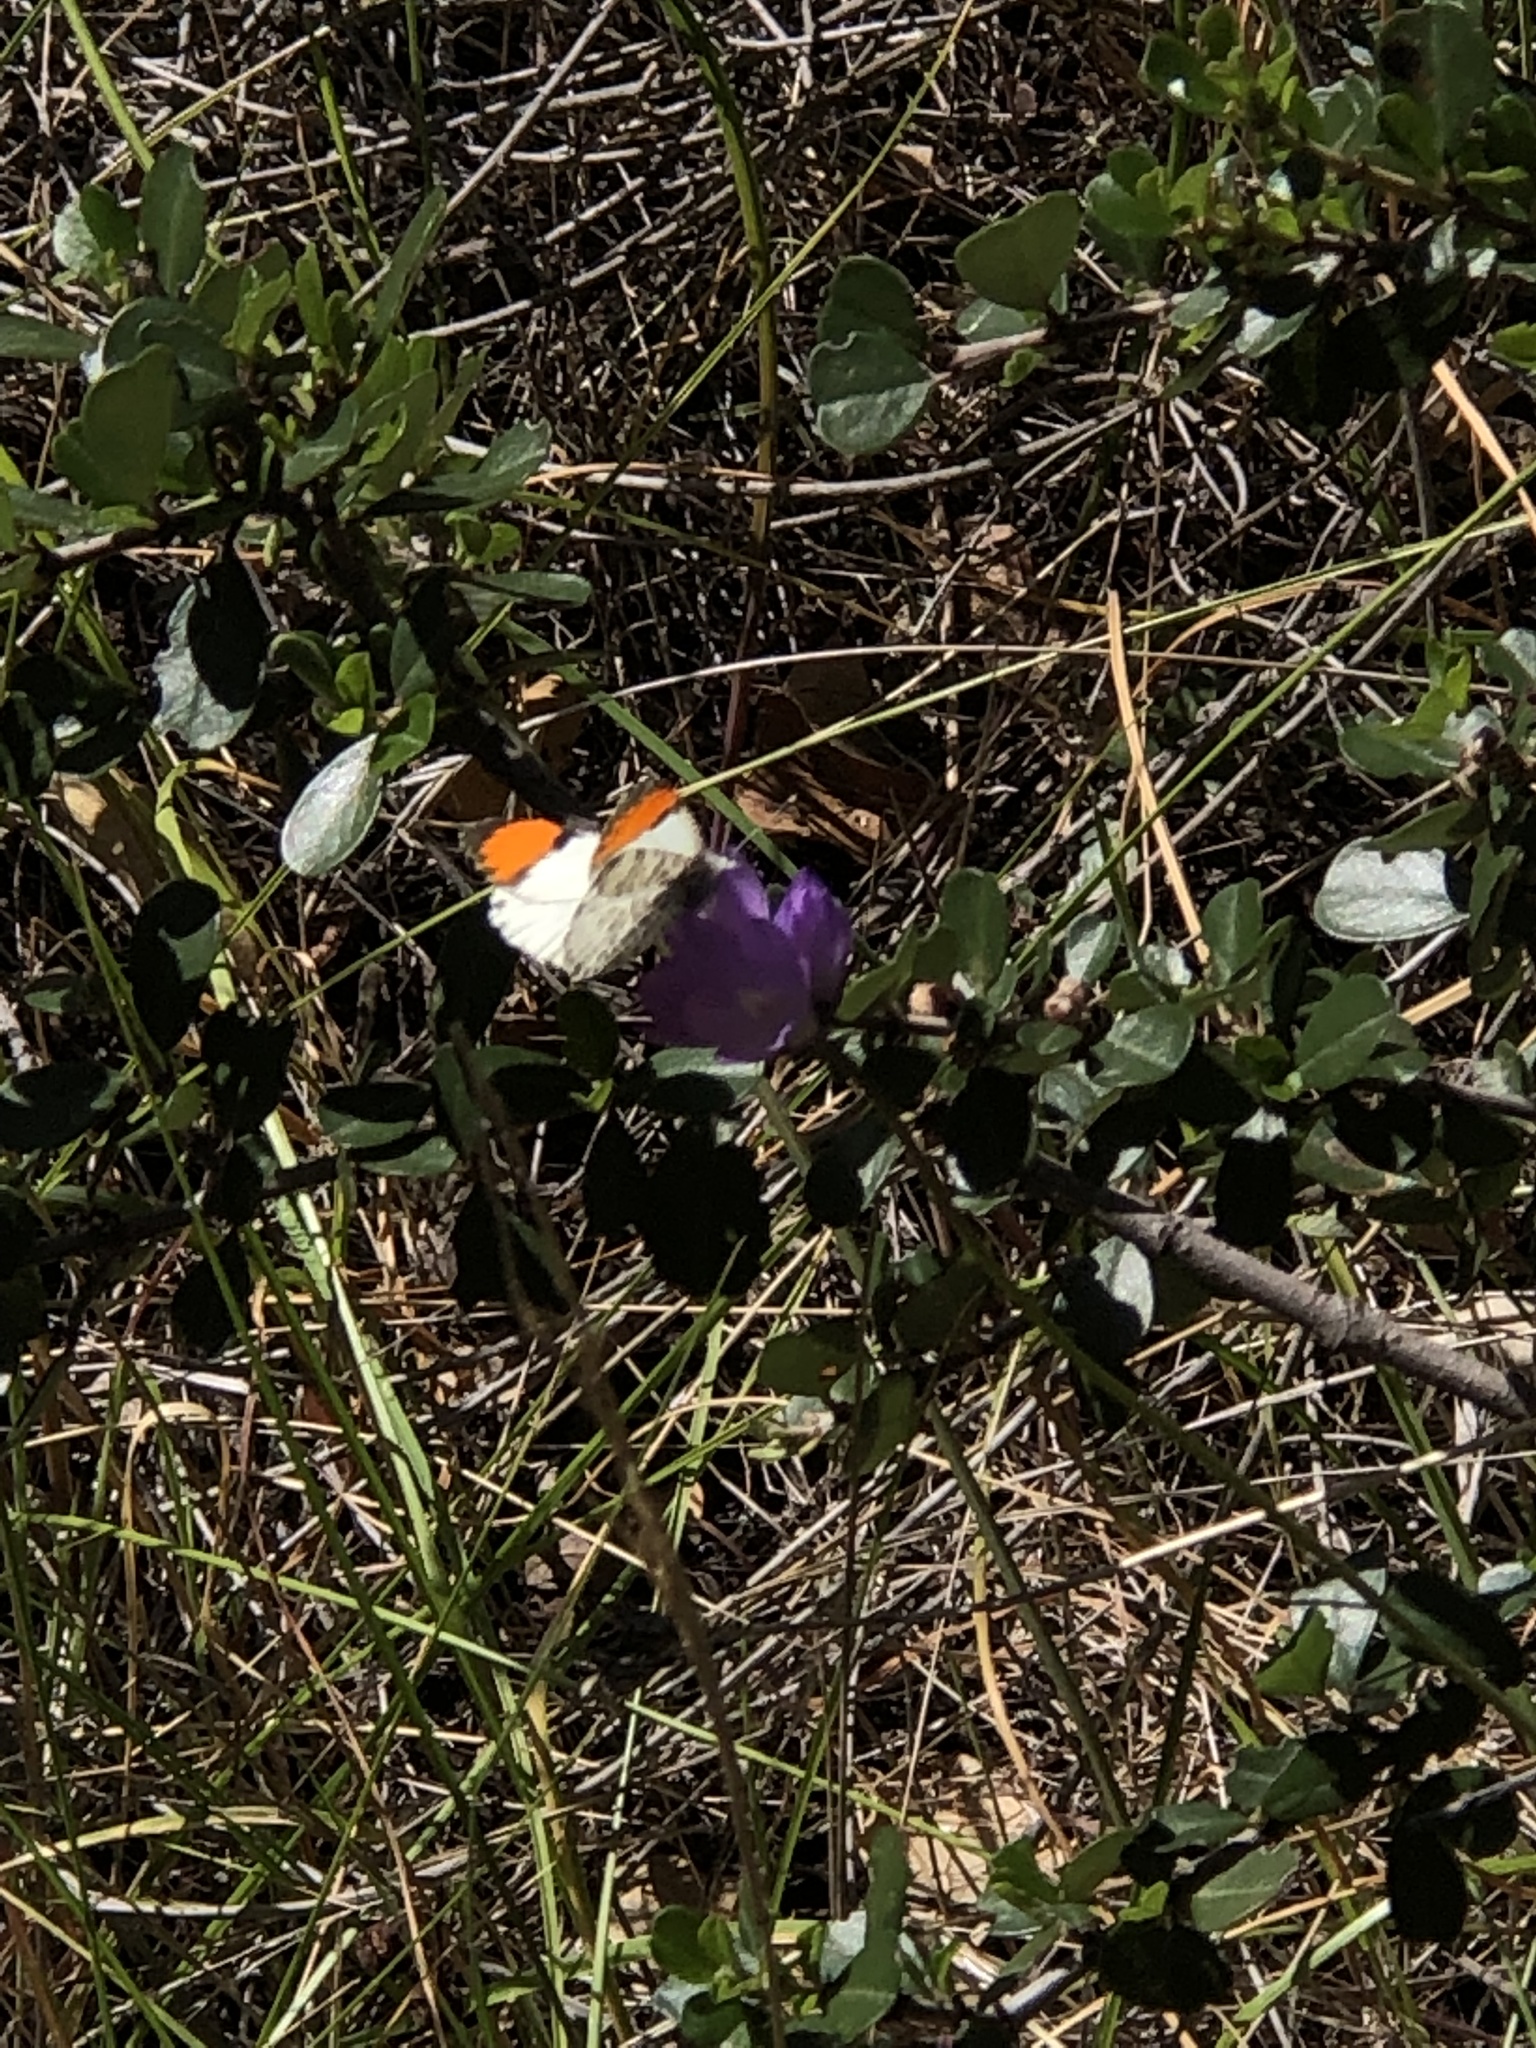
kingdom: Animalia
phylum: Arthropoda
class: Insecta
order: Lepidoptera
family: Pieridae
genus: Anthocharis
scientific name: Anthocharis sara
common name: Sara's orangetip
